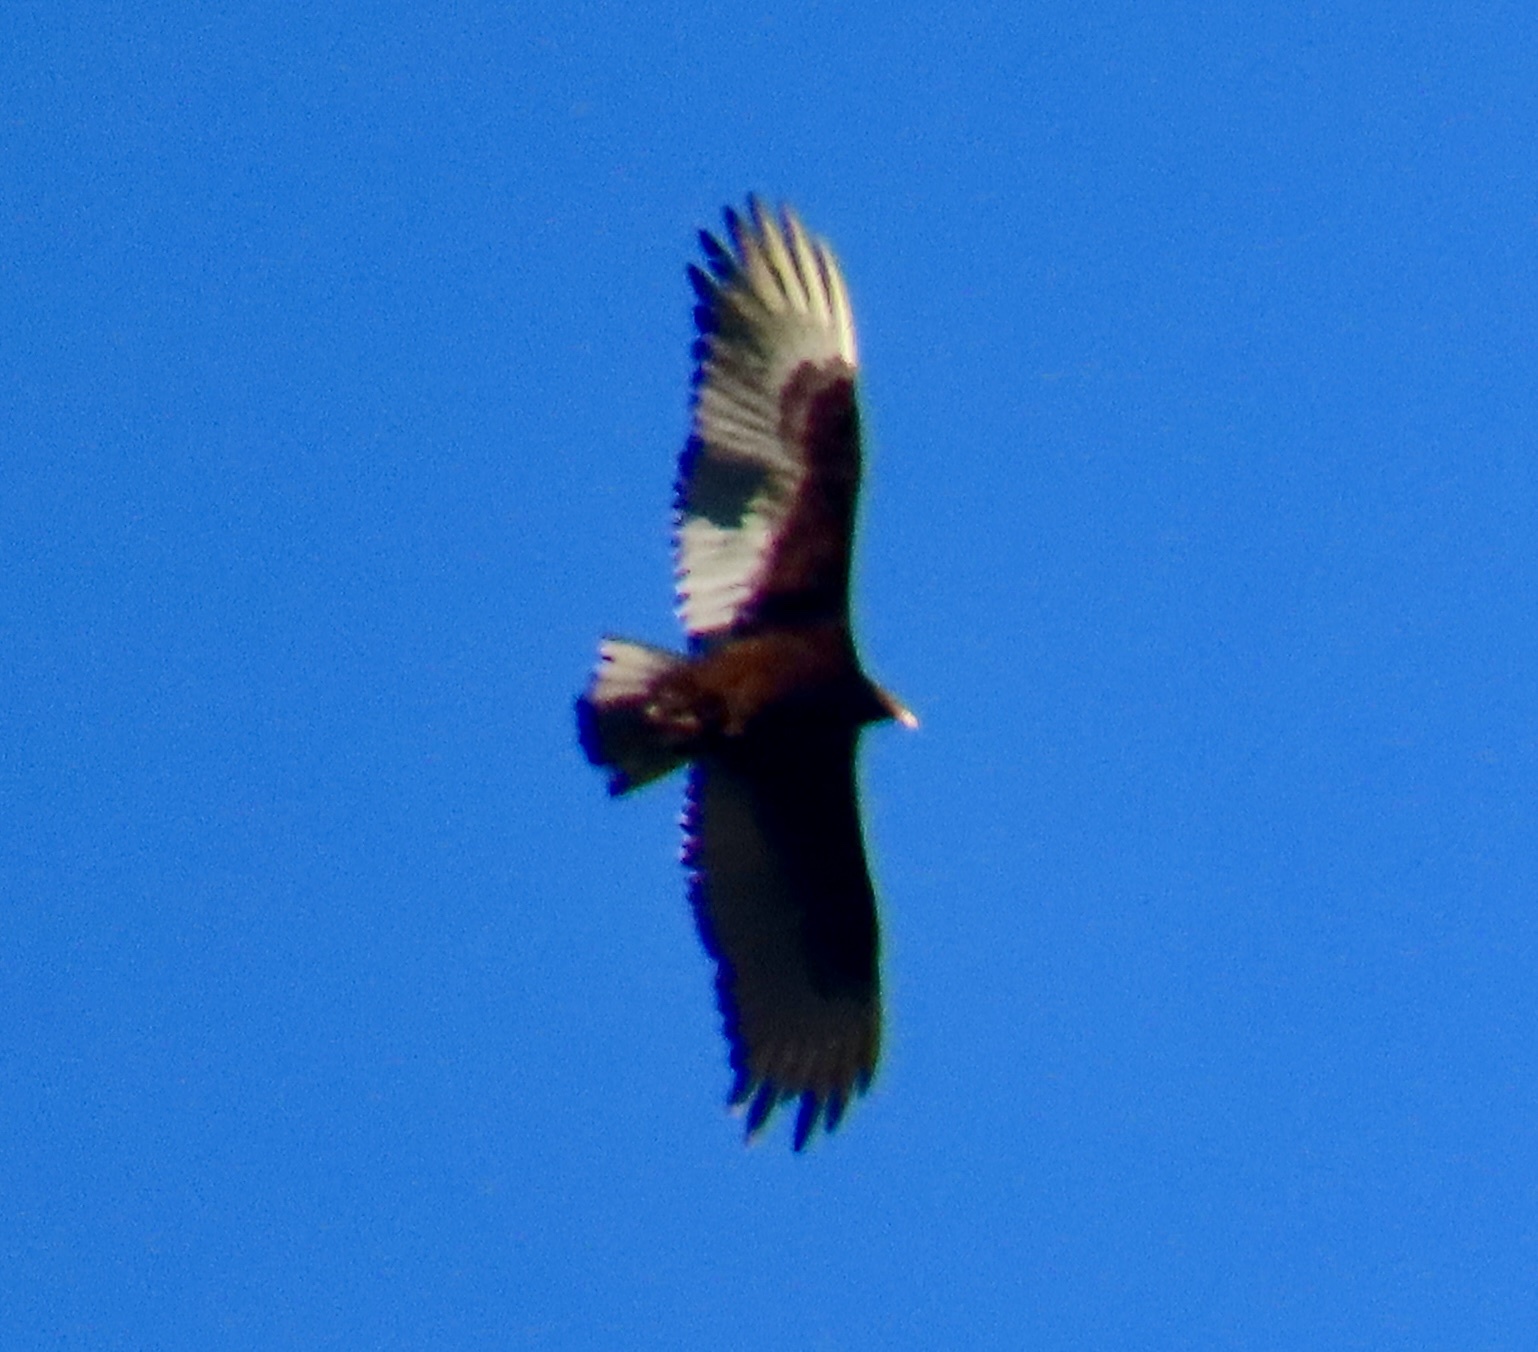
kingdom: Animalia
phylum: Chordata
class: Aves
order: Accipitriformes
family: Cathartidae
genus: Cathartes
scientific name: Cathartes aura
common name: Turkey vulture
